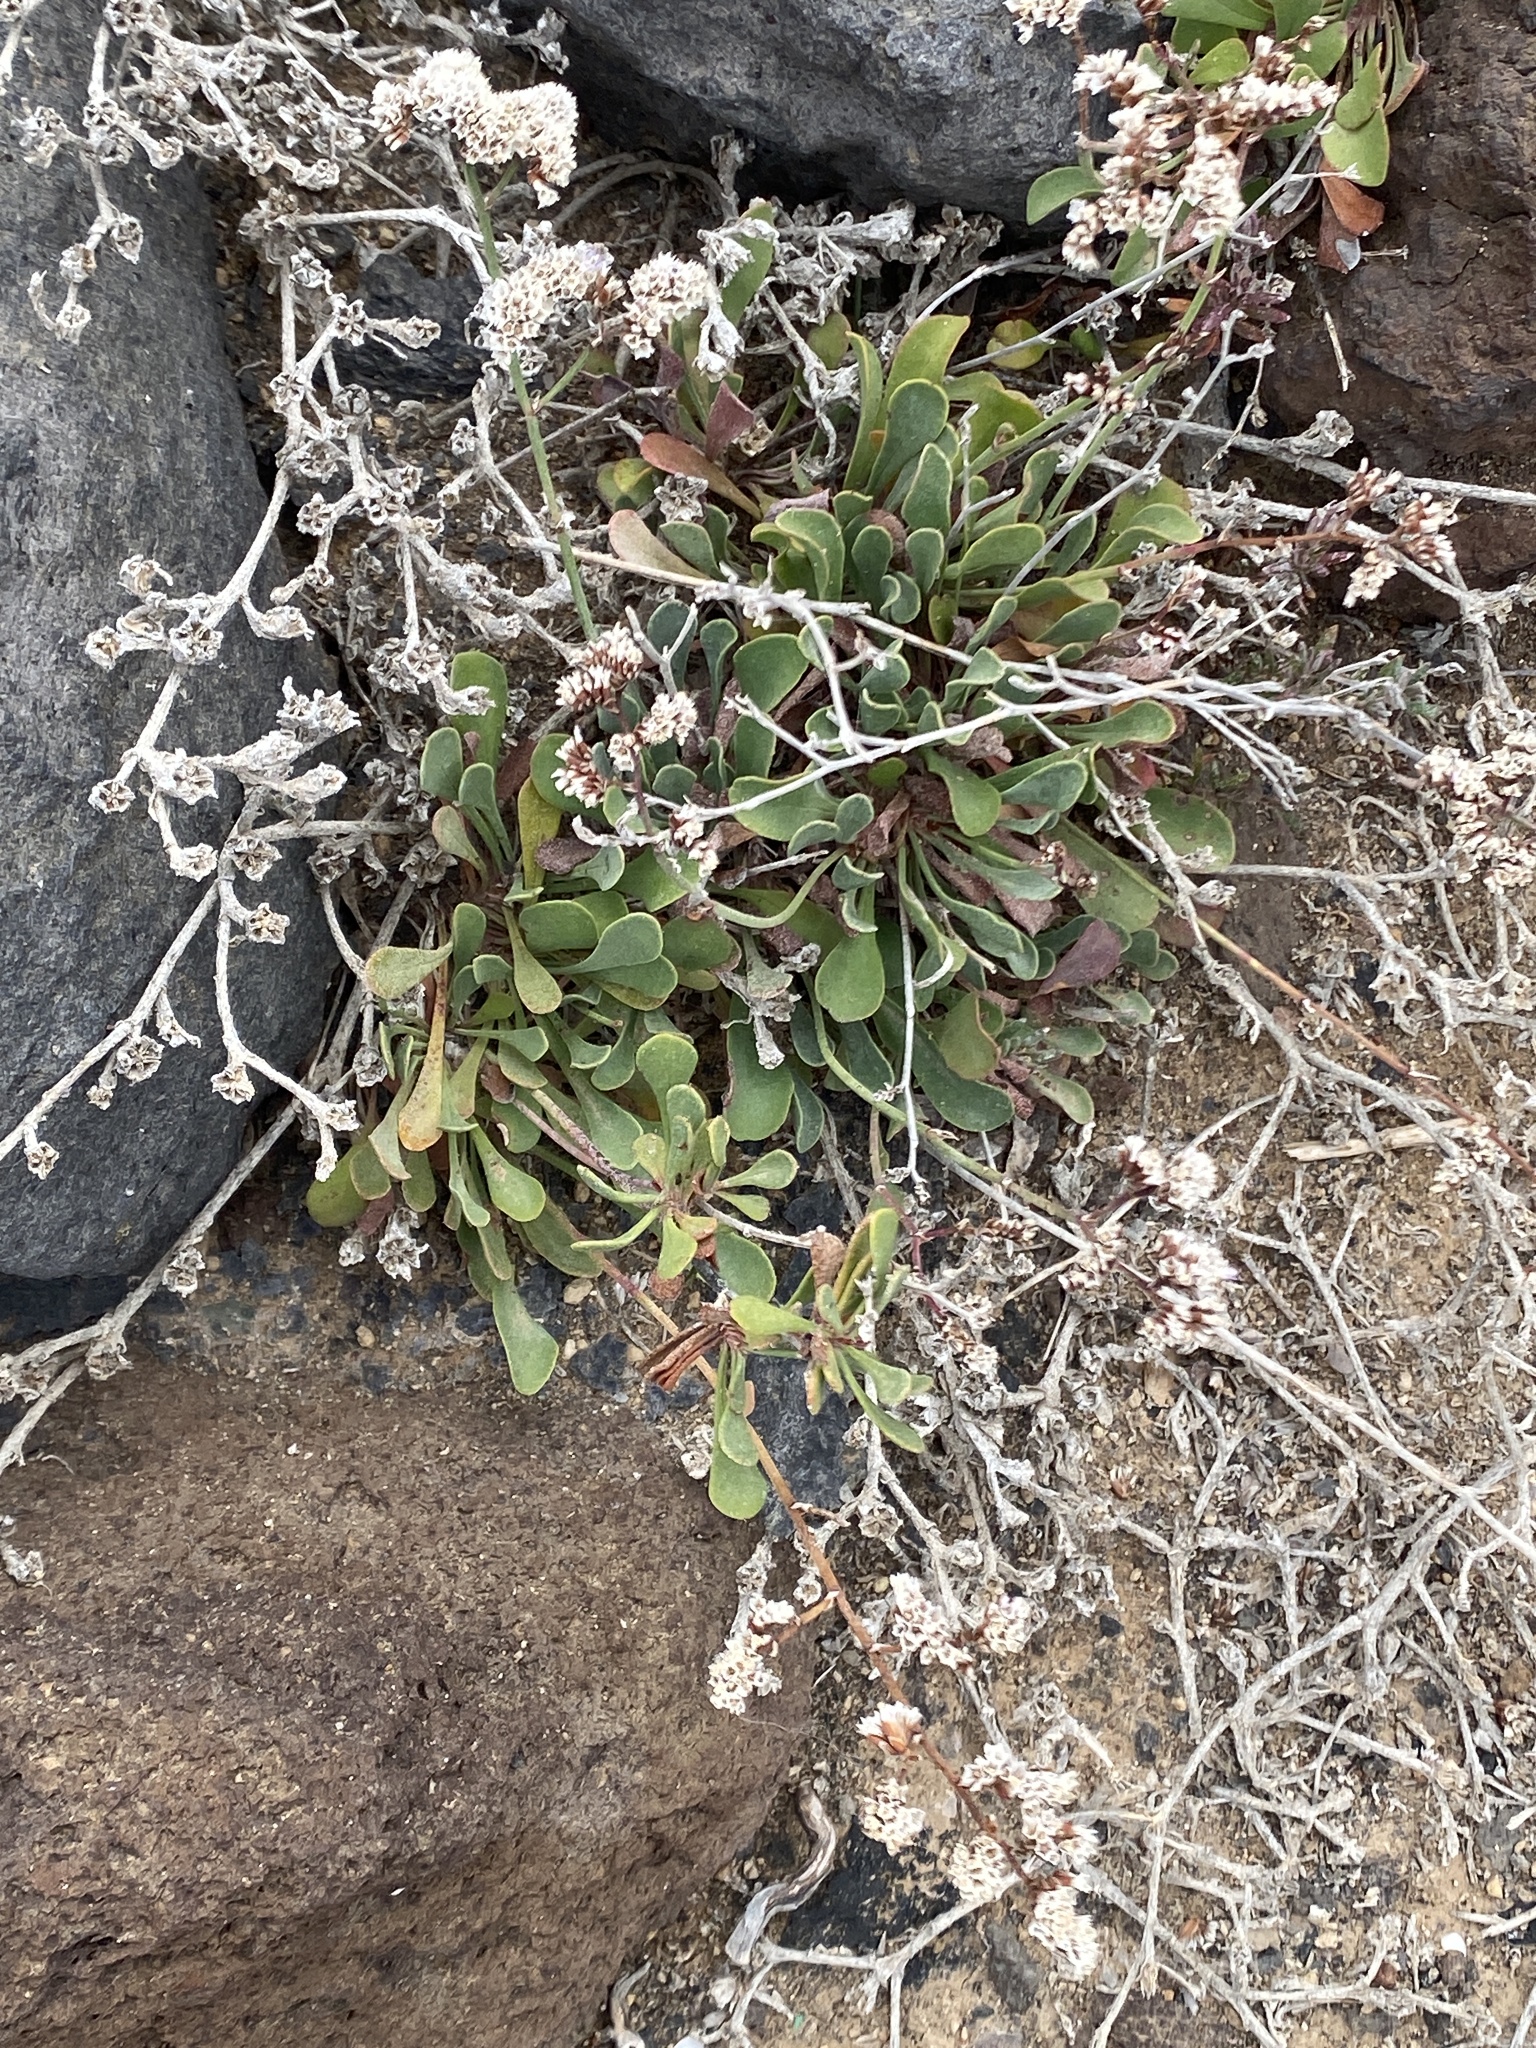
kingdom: Plantae
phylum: Tracheophyta
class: Magnoliopsida
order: Caryophyllales
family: Plumbaginaceae
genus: Limonium
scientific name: Limonium pectinatum
